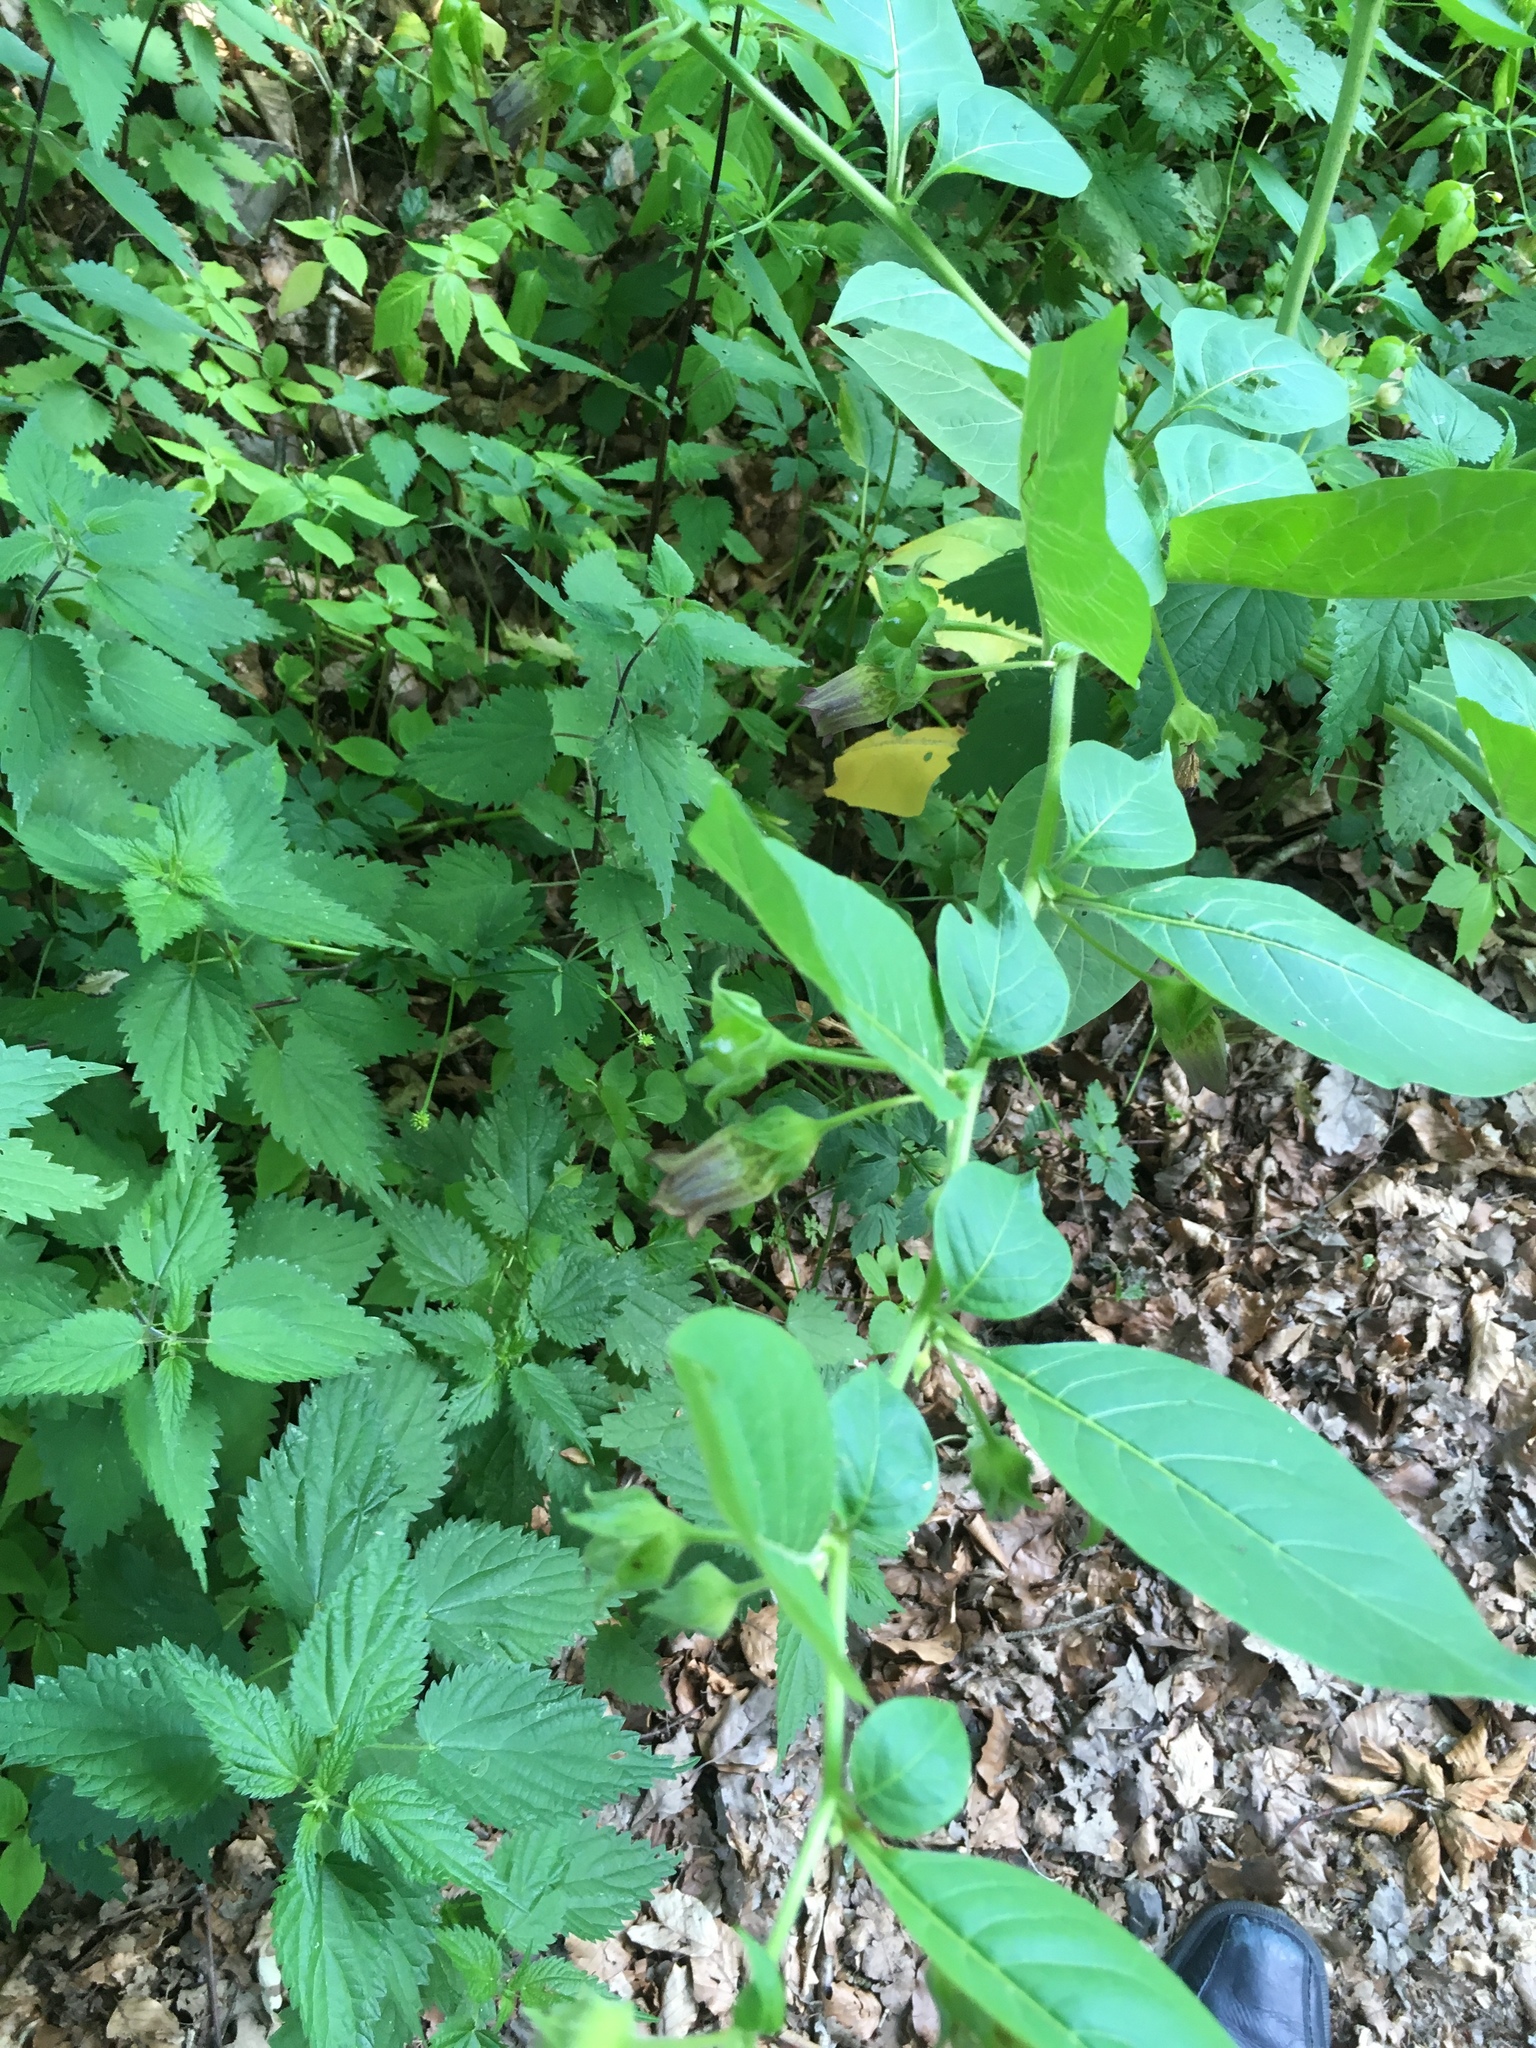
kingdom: Plantae
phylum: Tracheophyta
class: Magnoliopsida
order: Solanales
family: Solanaceae
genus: Atropa
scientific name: Atropa belladonna
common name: Deadly nightshade
